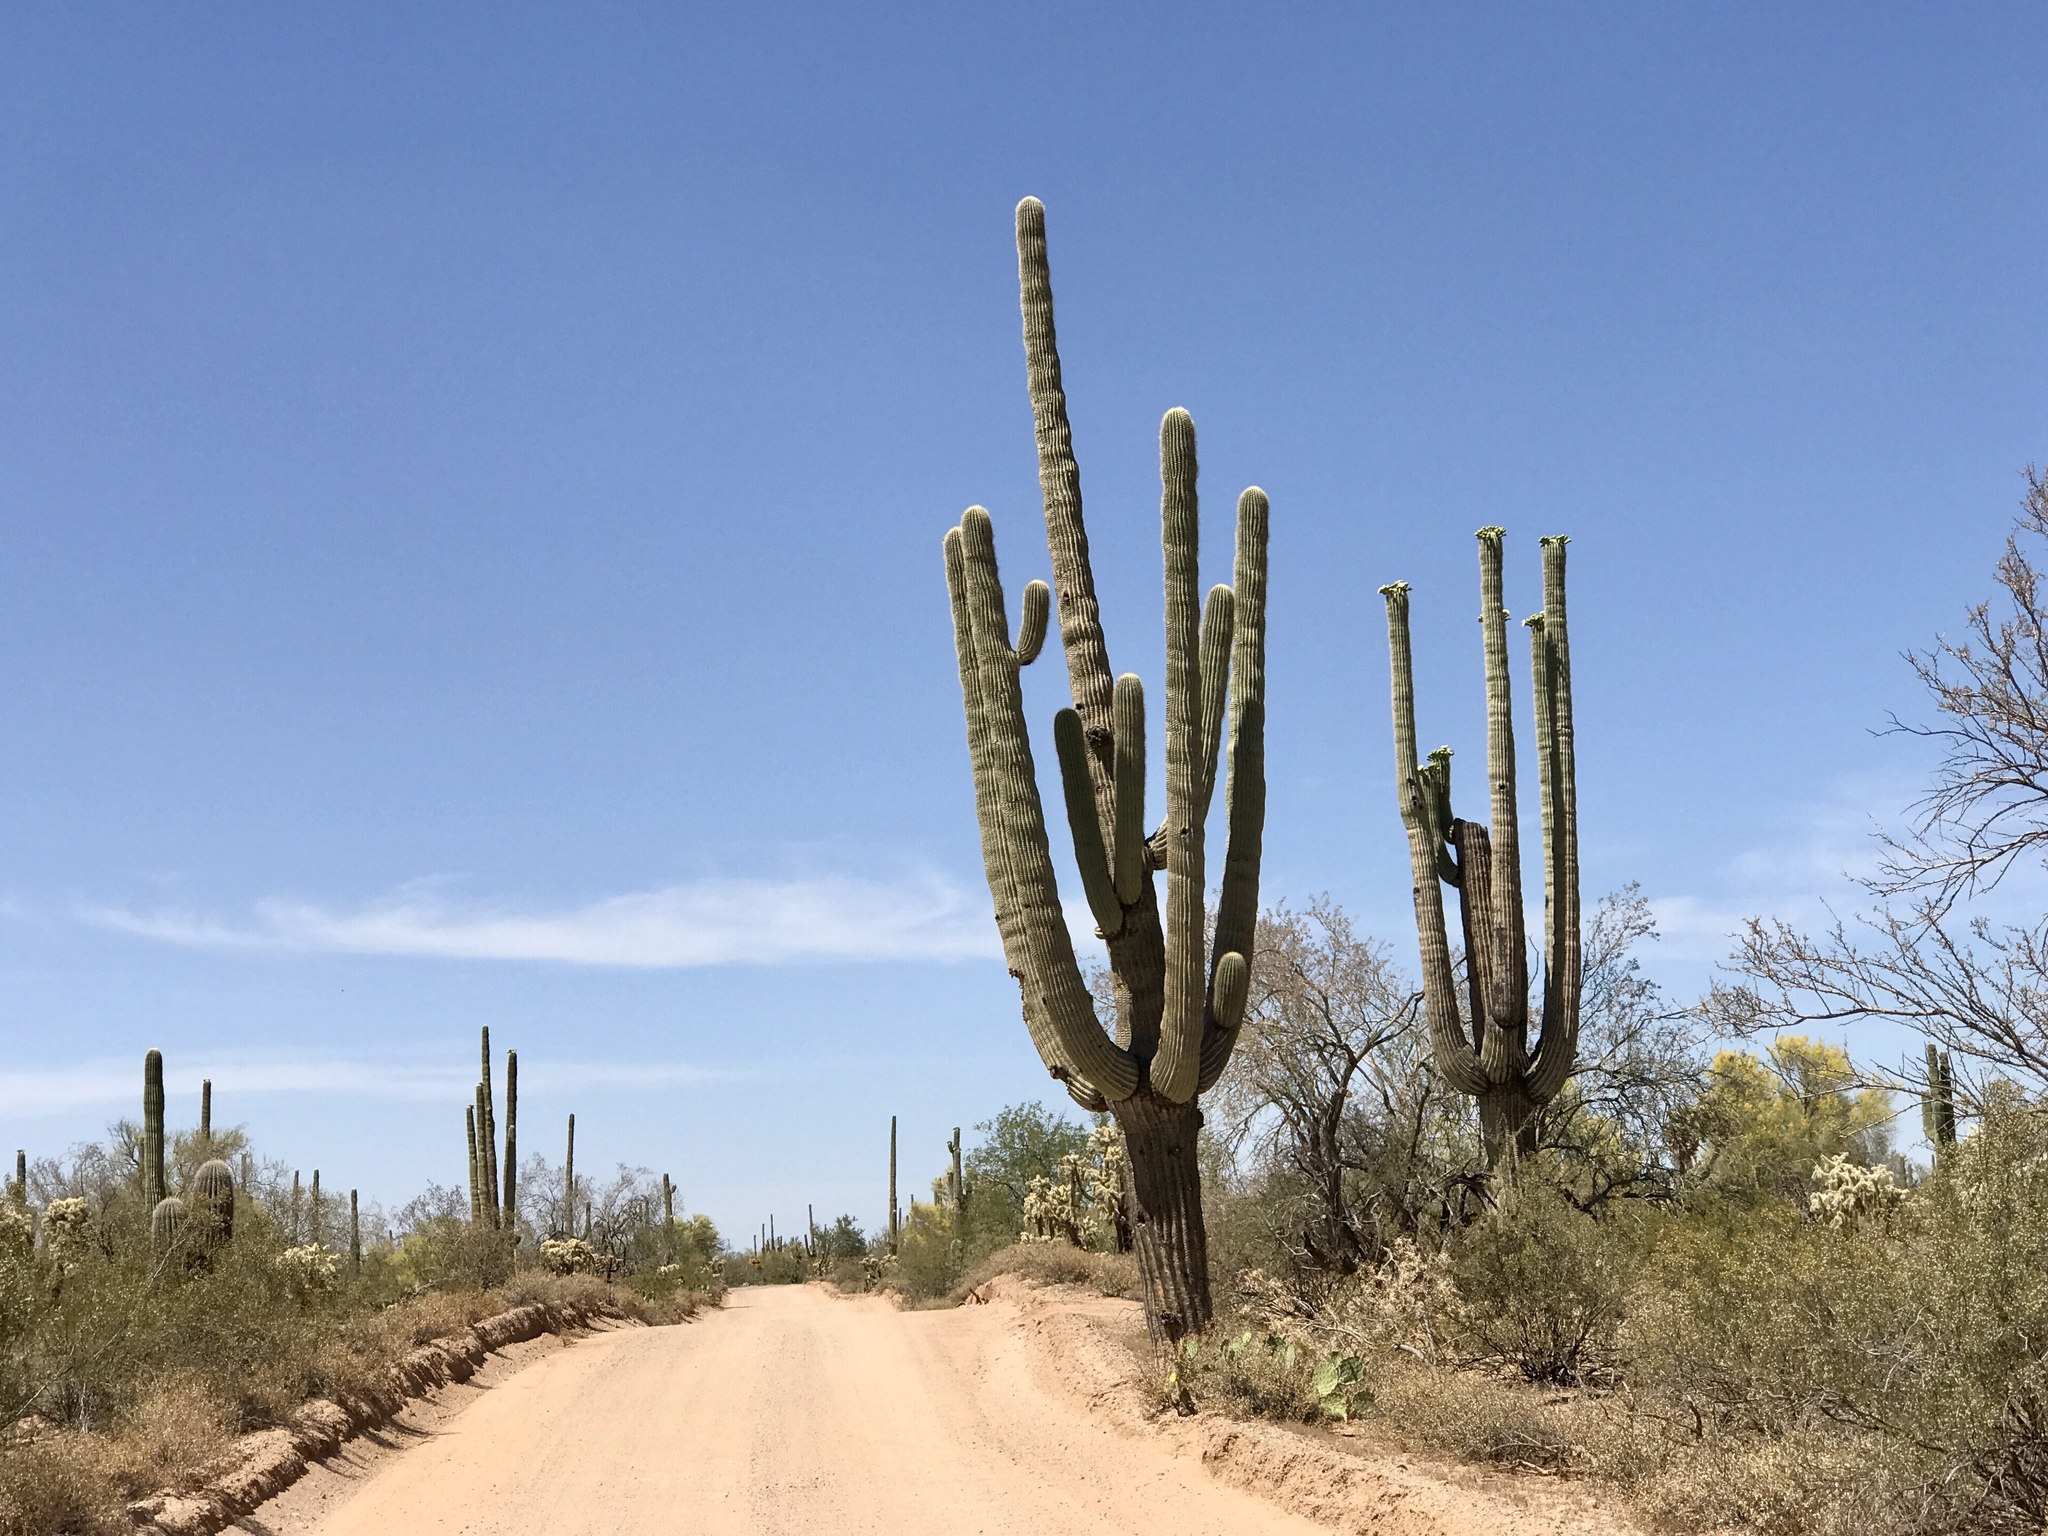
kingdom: Plantae
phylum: Tracheophyta
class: Magnoliopsida
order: Caryophyllales
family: Cactaceae
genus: Carnegiea
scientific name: Carnegiea gigantea
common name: Saguaro
